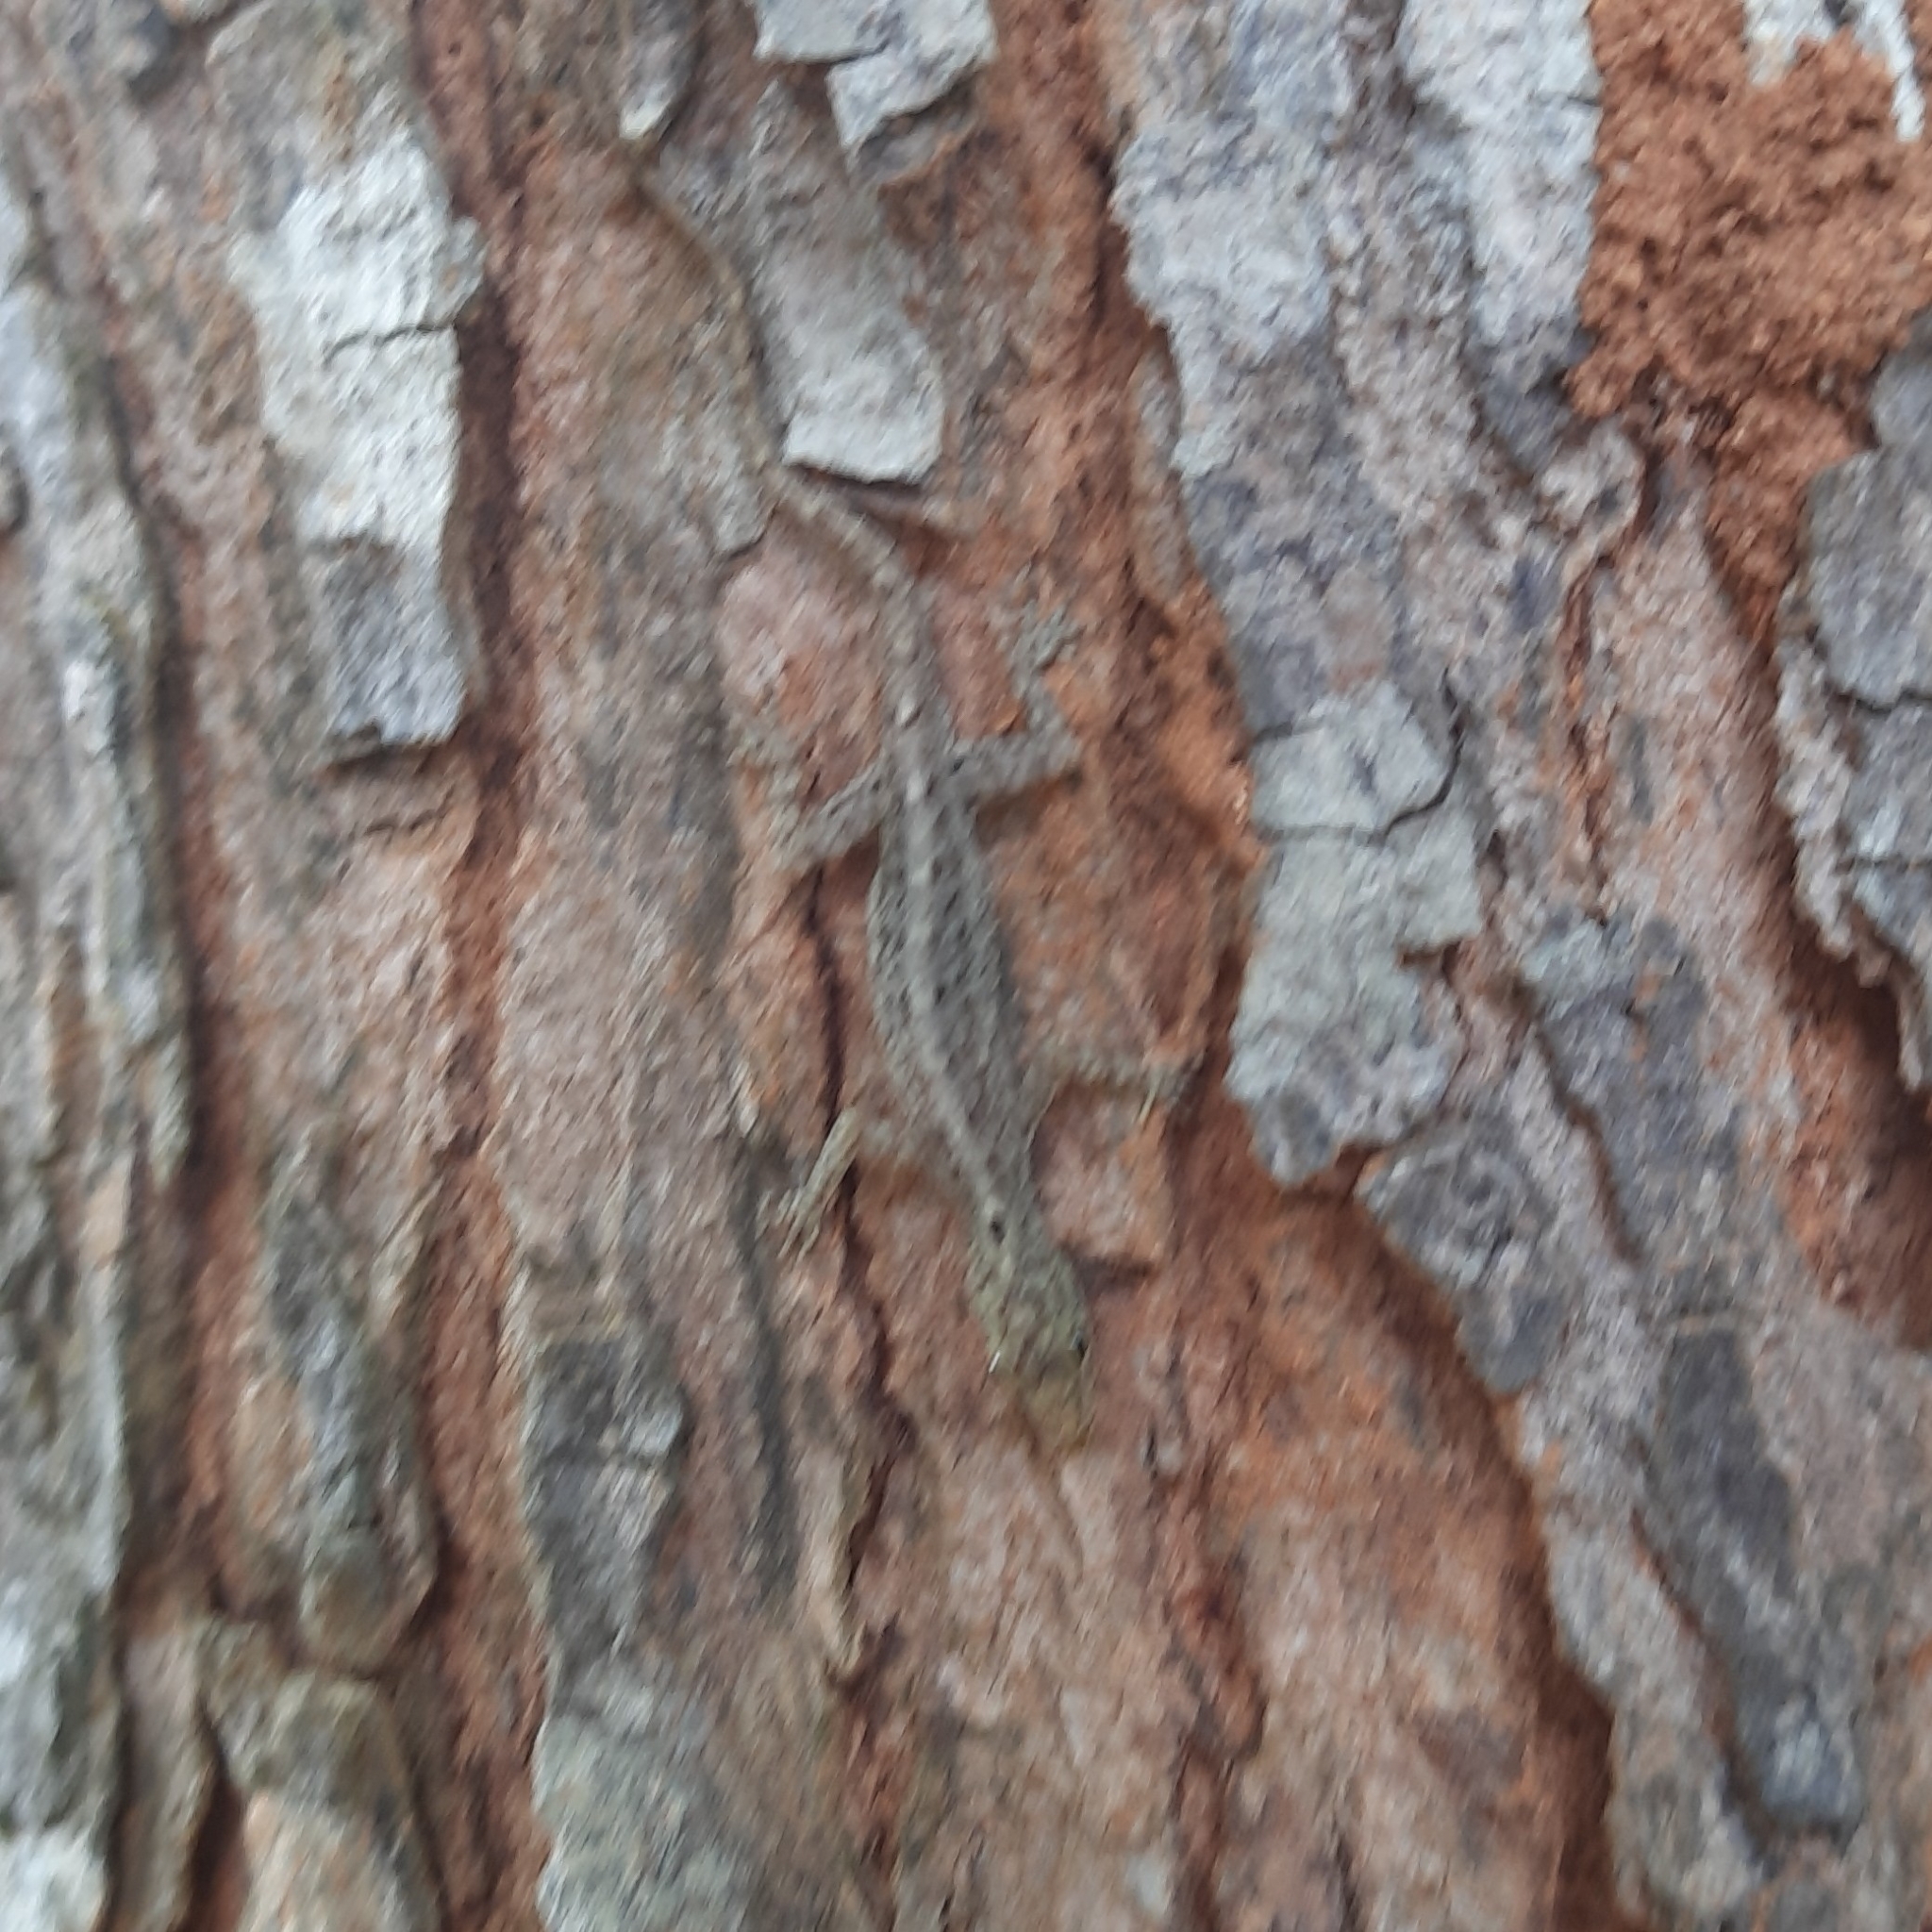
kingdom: Animalia
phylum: Chordata
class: Squamata
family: Gekkonidae
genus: Cnemaspis
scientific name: Cnemaspis littoralis
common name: Coastal day gecko
